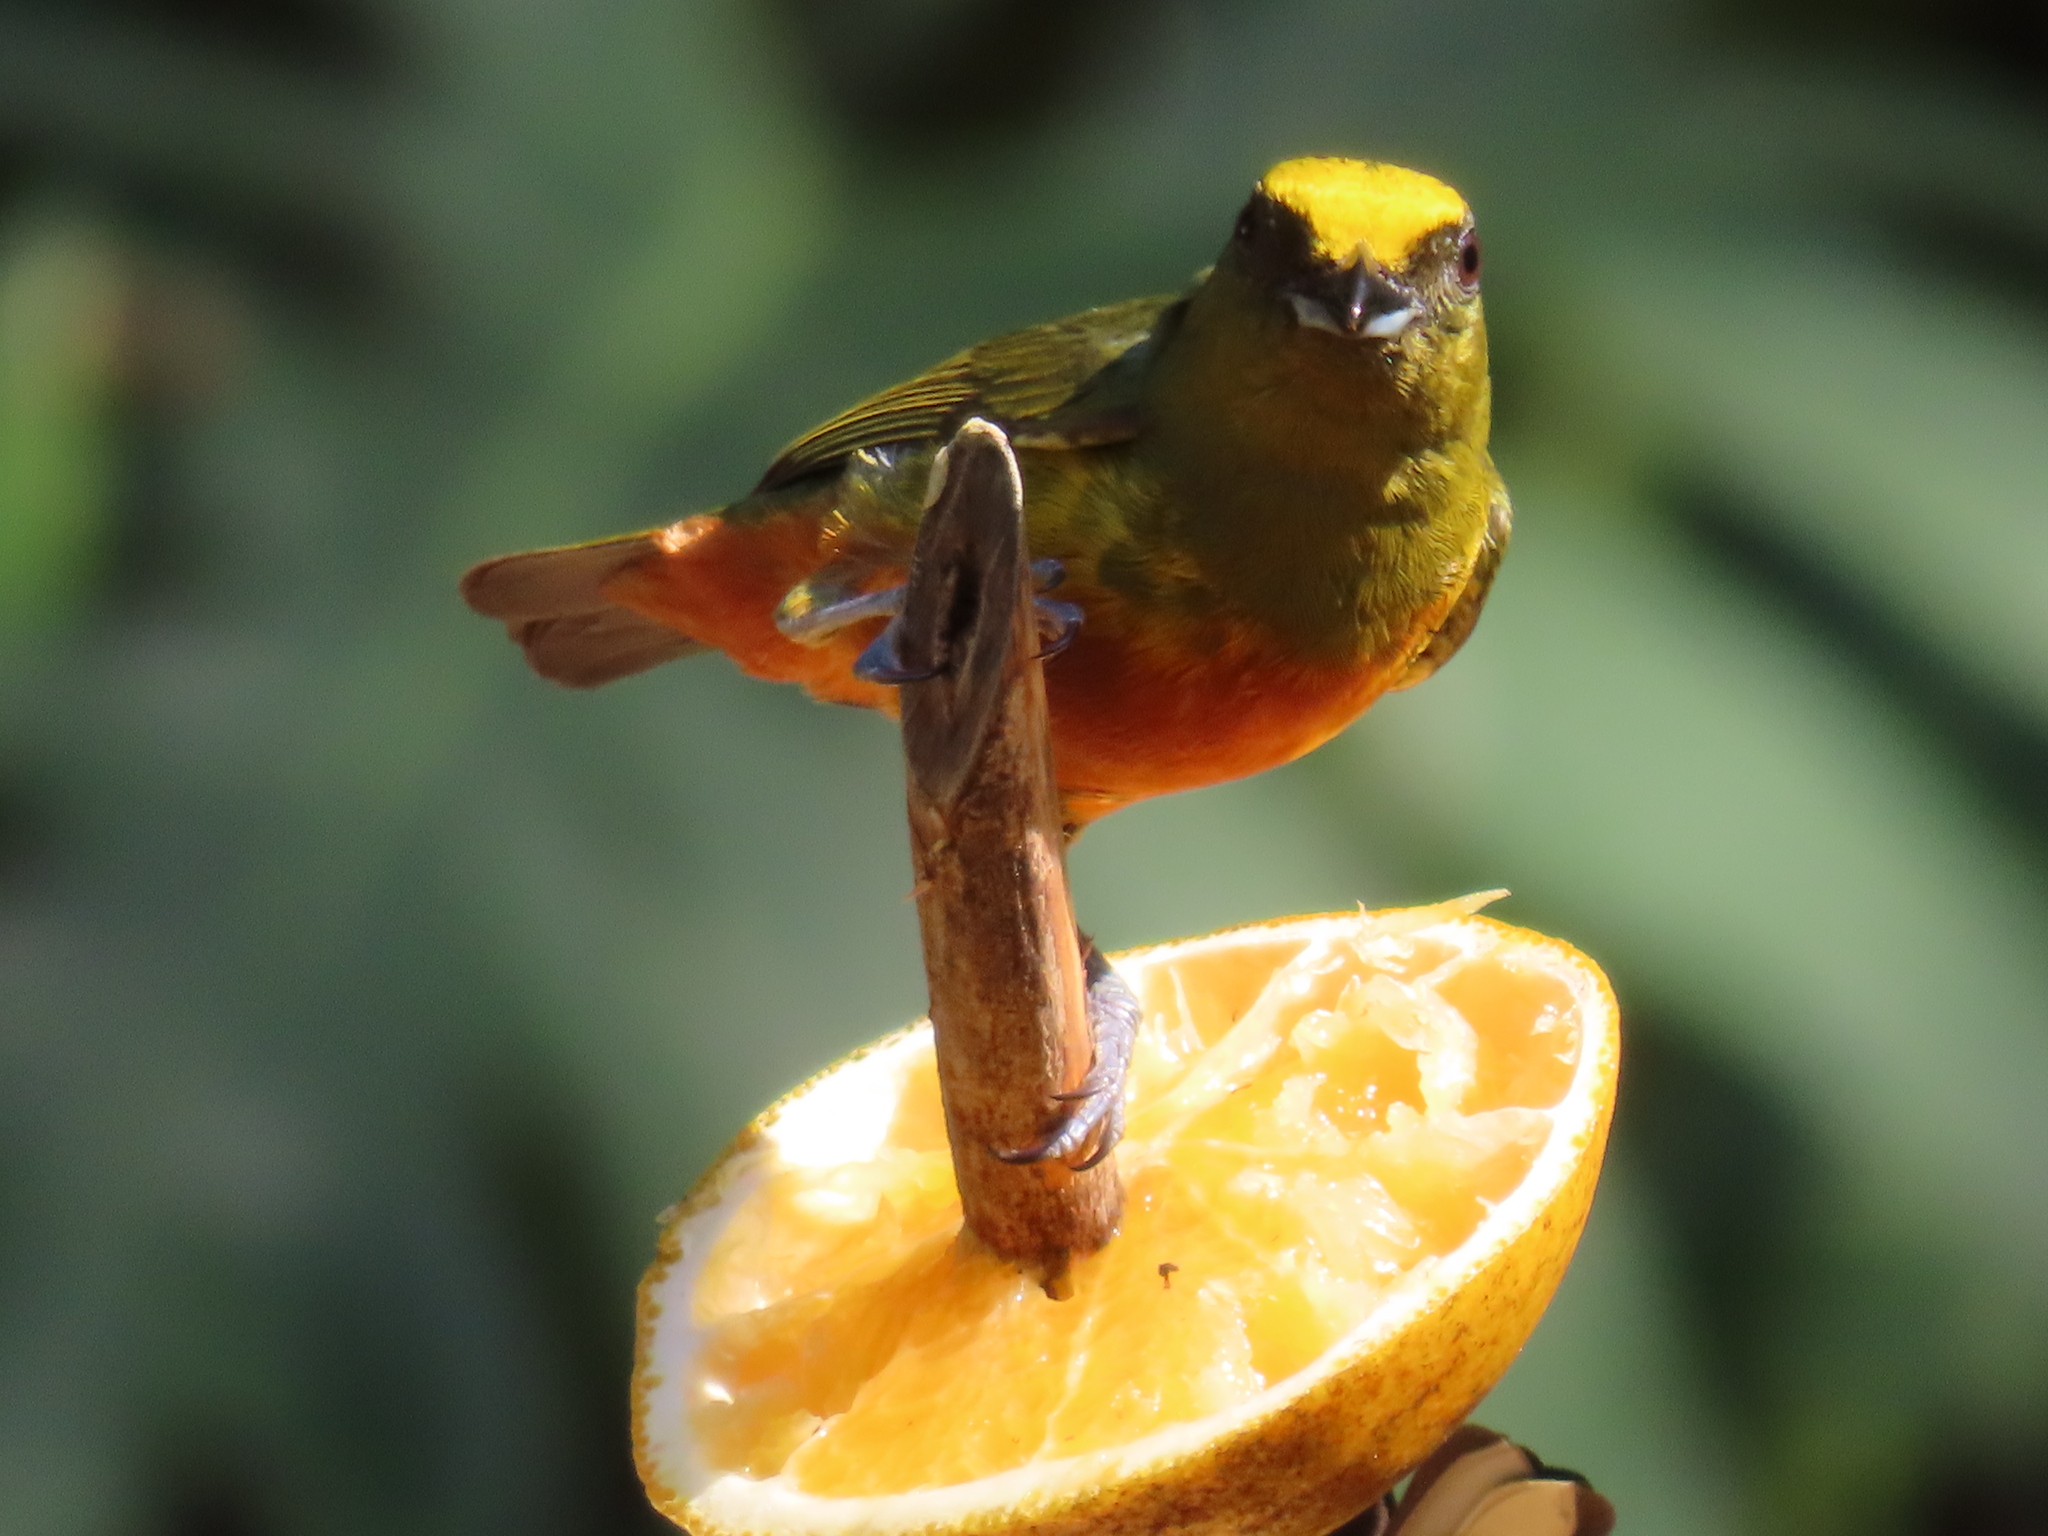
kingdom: Animalia
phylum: Chordata
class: Aves
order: Passeriformes
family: Fringillidae
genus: Euphonia
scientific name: Euphonia gouldi
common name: Olive-backed euphonia
